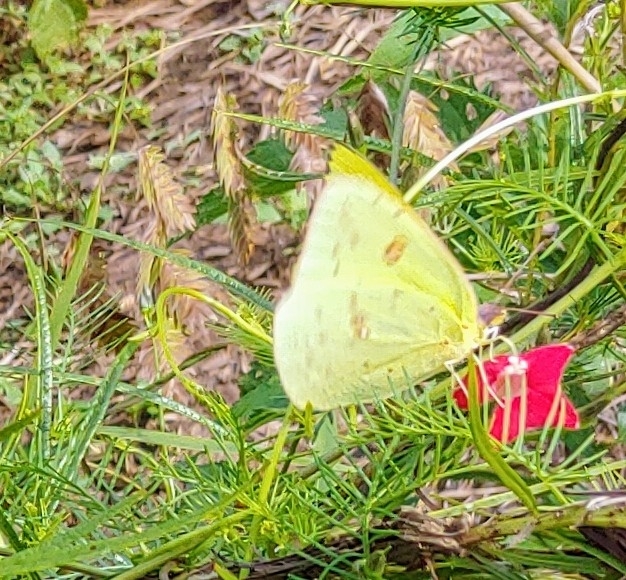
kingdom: Animalia
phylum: Arthropoda
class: Insecta
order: Lepidoptera
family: Pieridae
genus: Phoebis
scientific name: Phoebis sennae
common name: Cloudless sulphur
